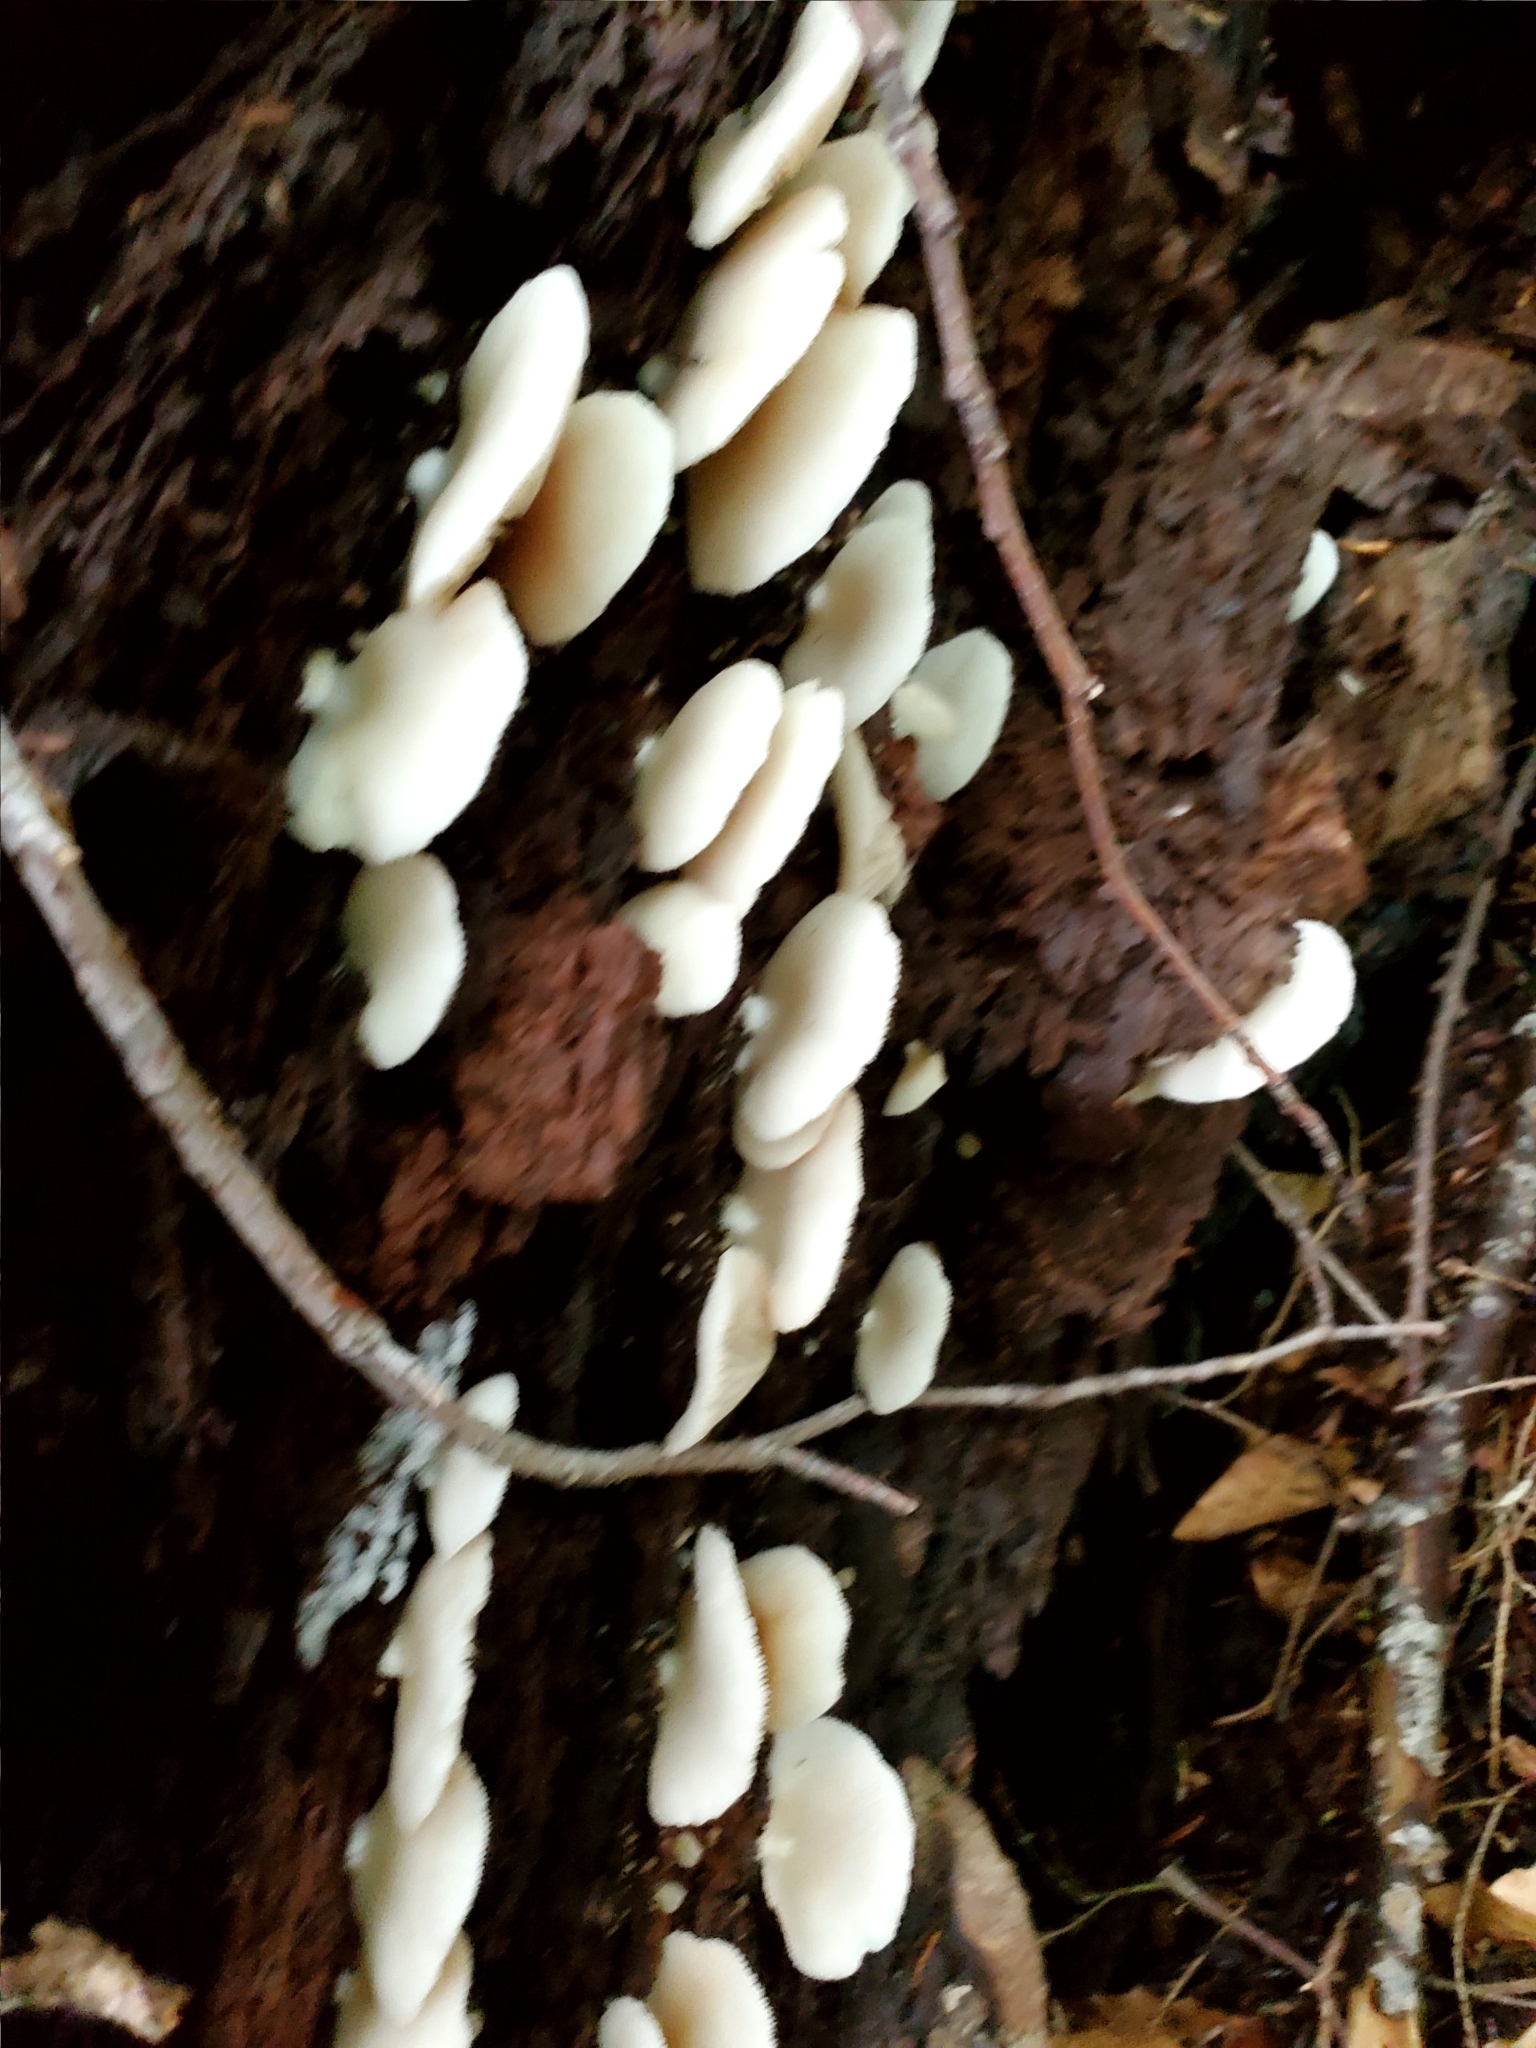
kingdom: Fungi
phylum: Basidiomycota
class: Agaricomycetes
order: Agaricales
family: Crepidotaceae
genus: Crepidotus
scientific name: Crepidotus applanatus
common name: Flat crep
